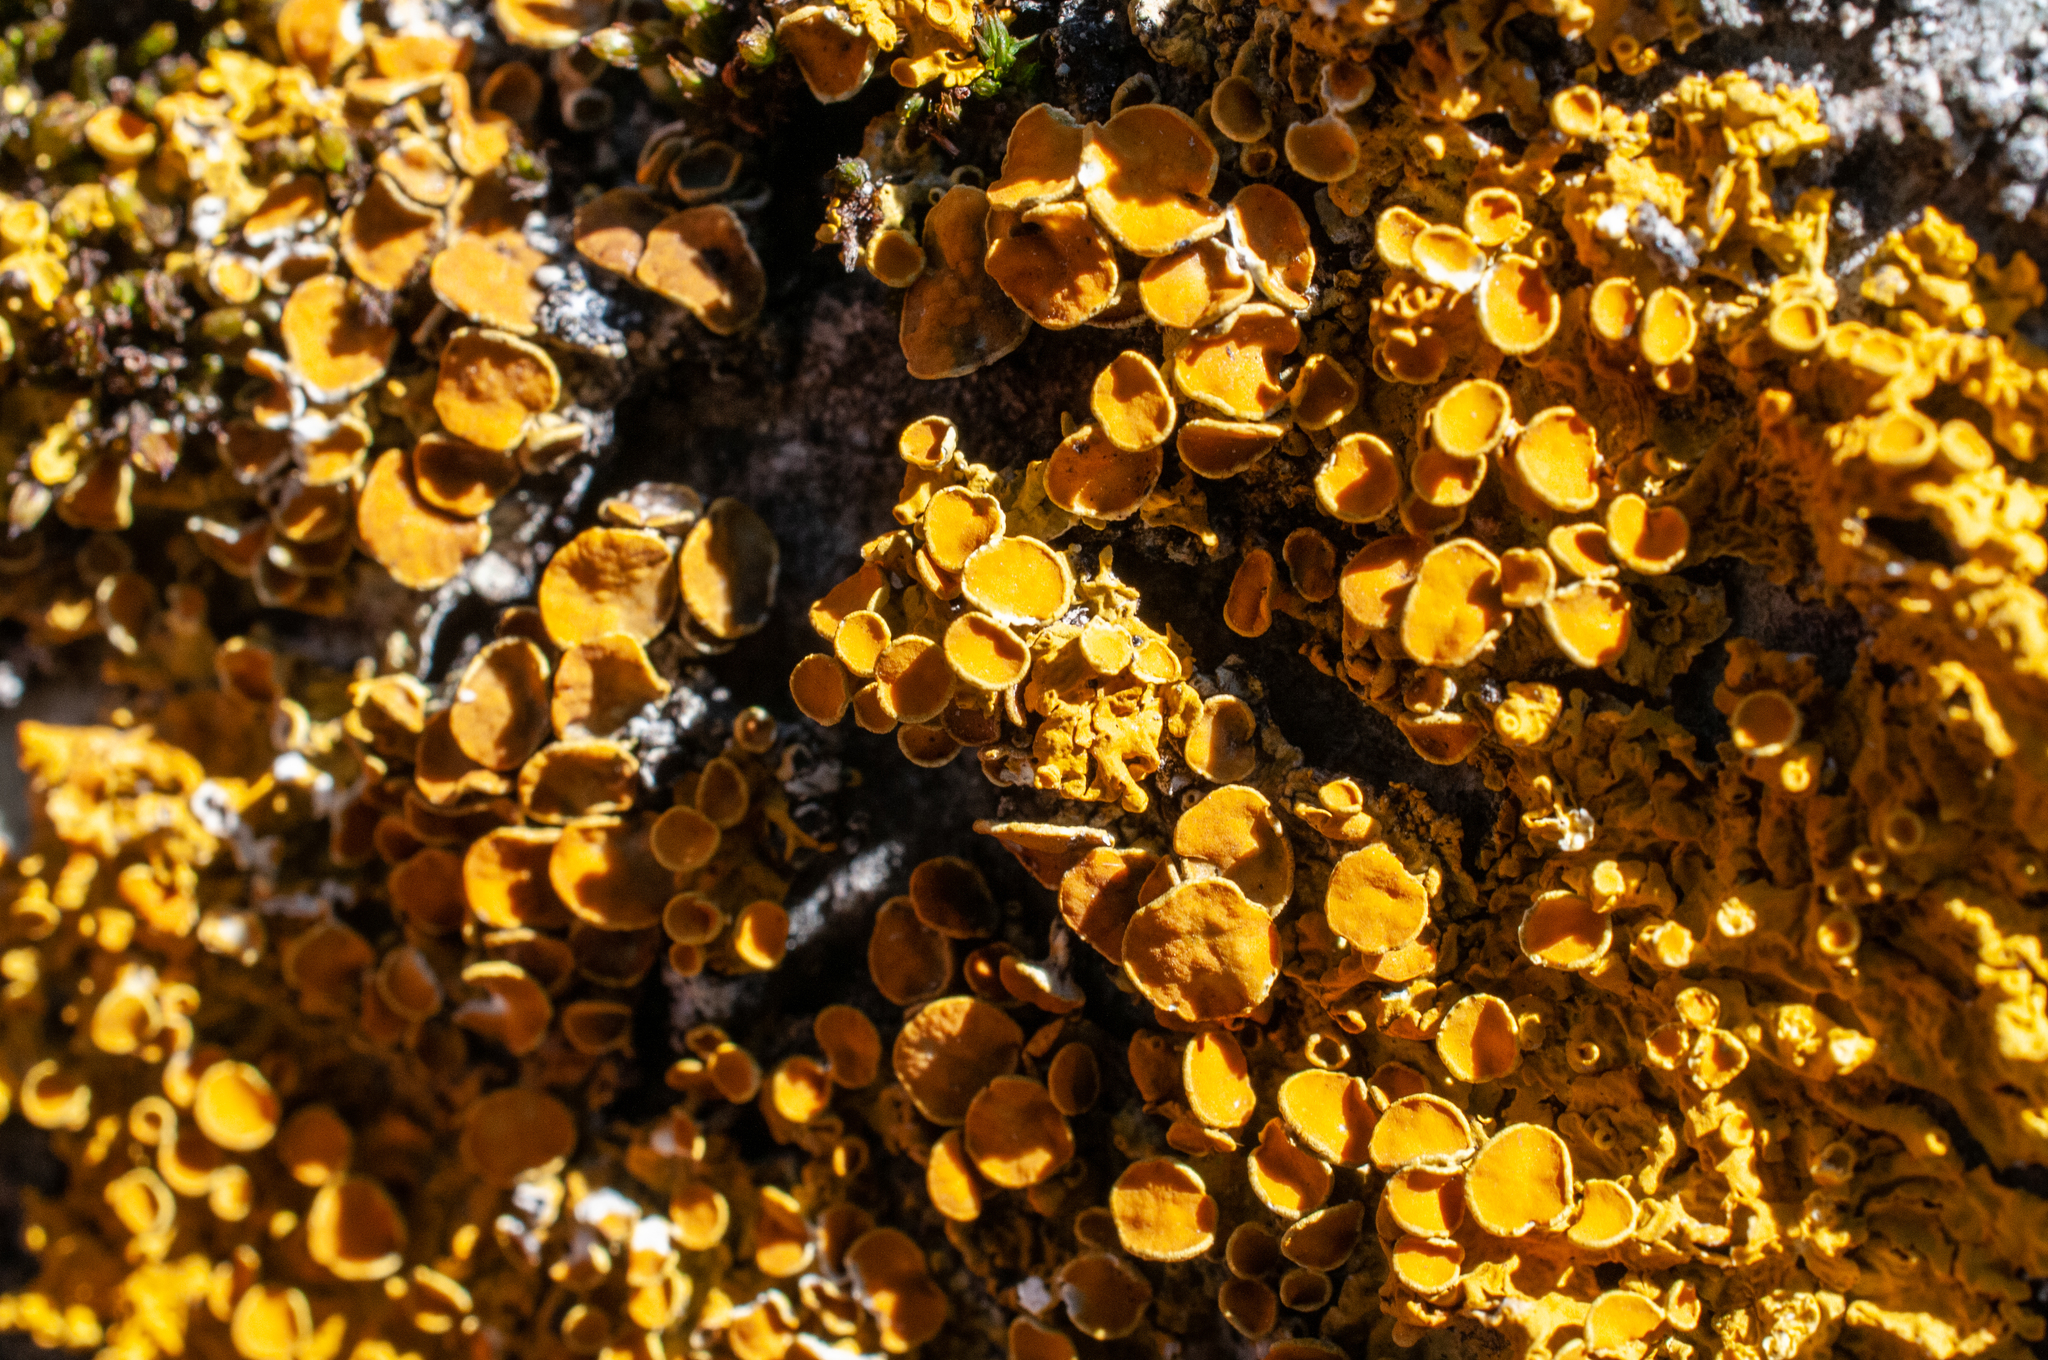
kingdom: Fungi
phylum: Ascomycota
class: Lecanoromycetes
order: Teloschistales
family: Teloschistaceae
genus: Xanthoria
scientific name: Xanthoria parietina
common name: Common orange lichen
